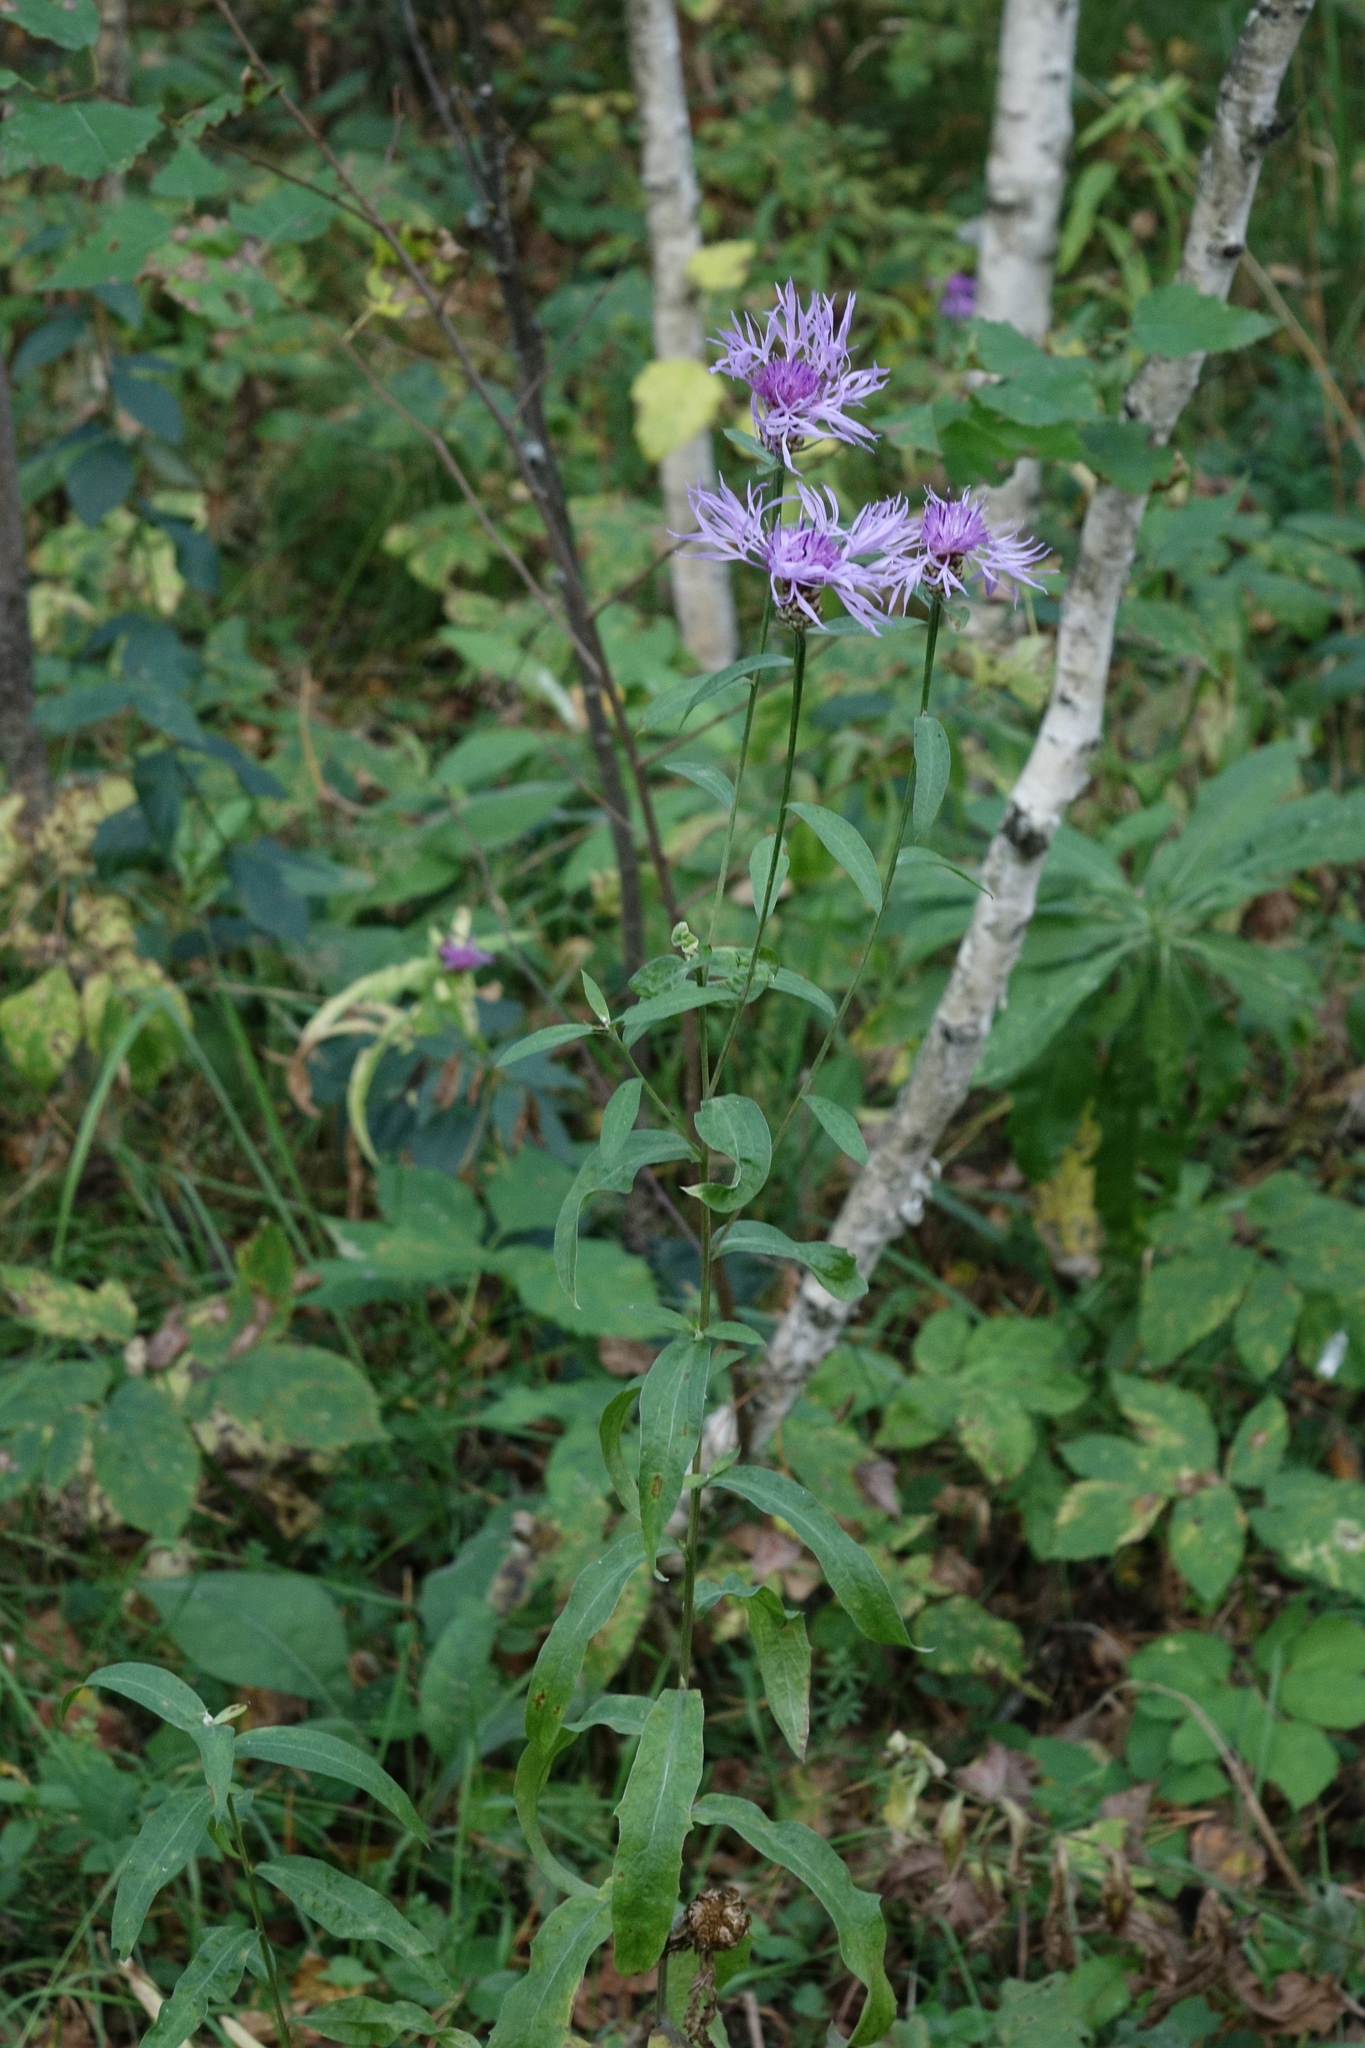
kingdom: Plantae
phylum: Tracheophyta
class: Magnoliopsida
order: Asterales
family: Asteraceae
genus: Centaurea
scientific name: Centaurea jacea
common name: Brown knapweed
